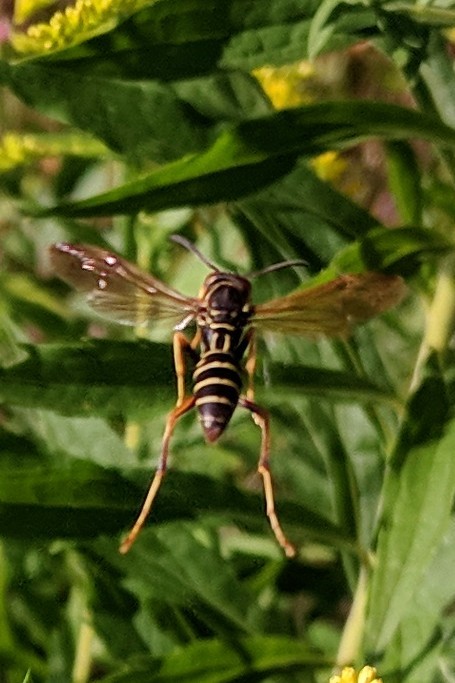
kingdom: Animalia
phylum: Arthropoda
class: Insecta
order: Hymenoptera
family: Eumenidae
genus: Polistes
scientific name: Polistes dominula
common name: Paper wasp
